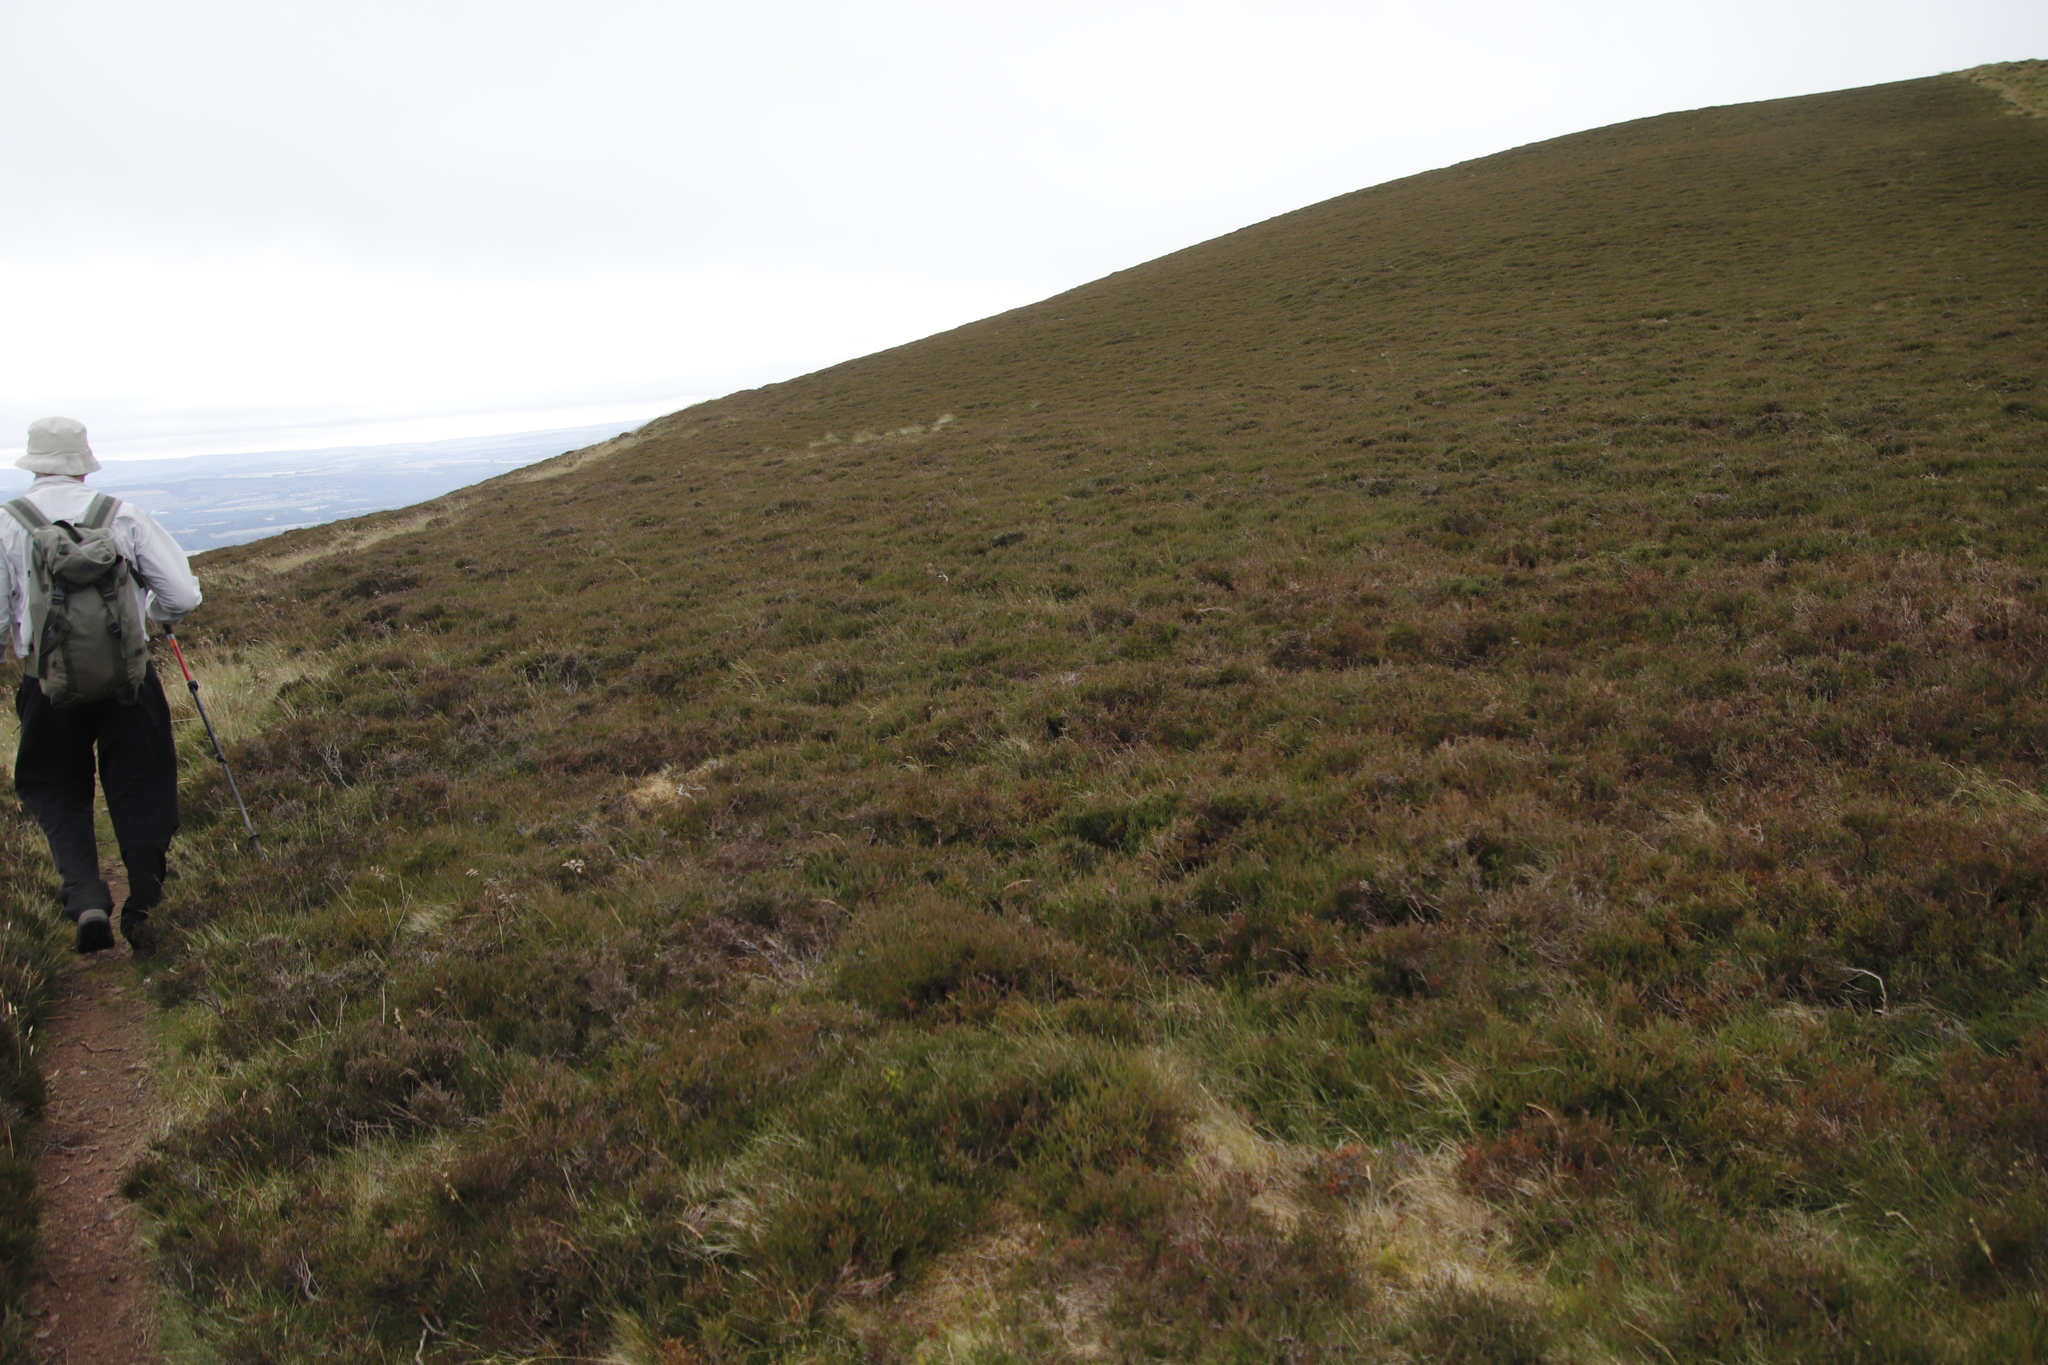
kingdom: Plantae
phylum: Tracheophyta
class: Magnoliopsida
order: Ericales
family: Ericaceae
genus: Calluna
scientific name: Calluna vulgaris
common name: Heather
